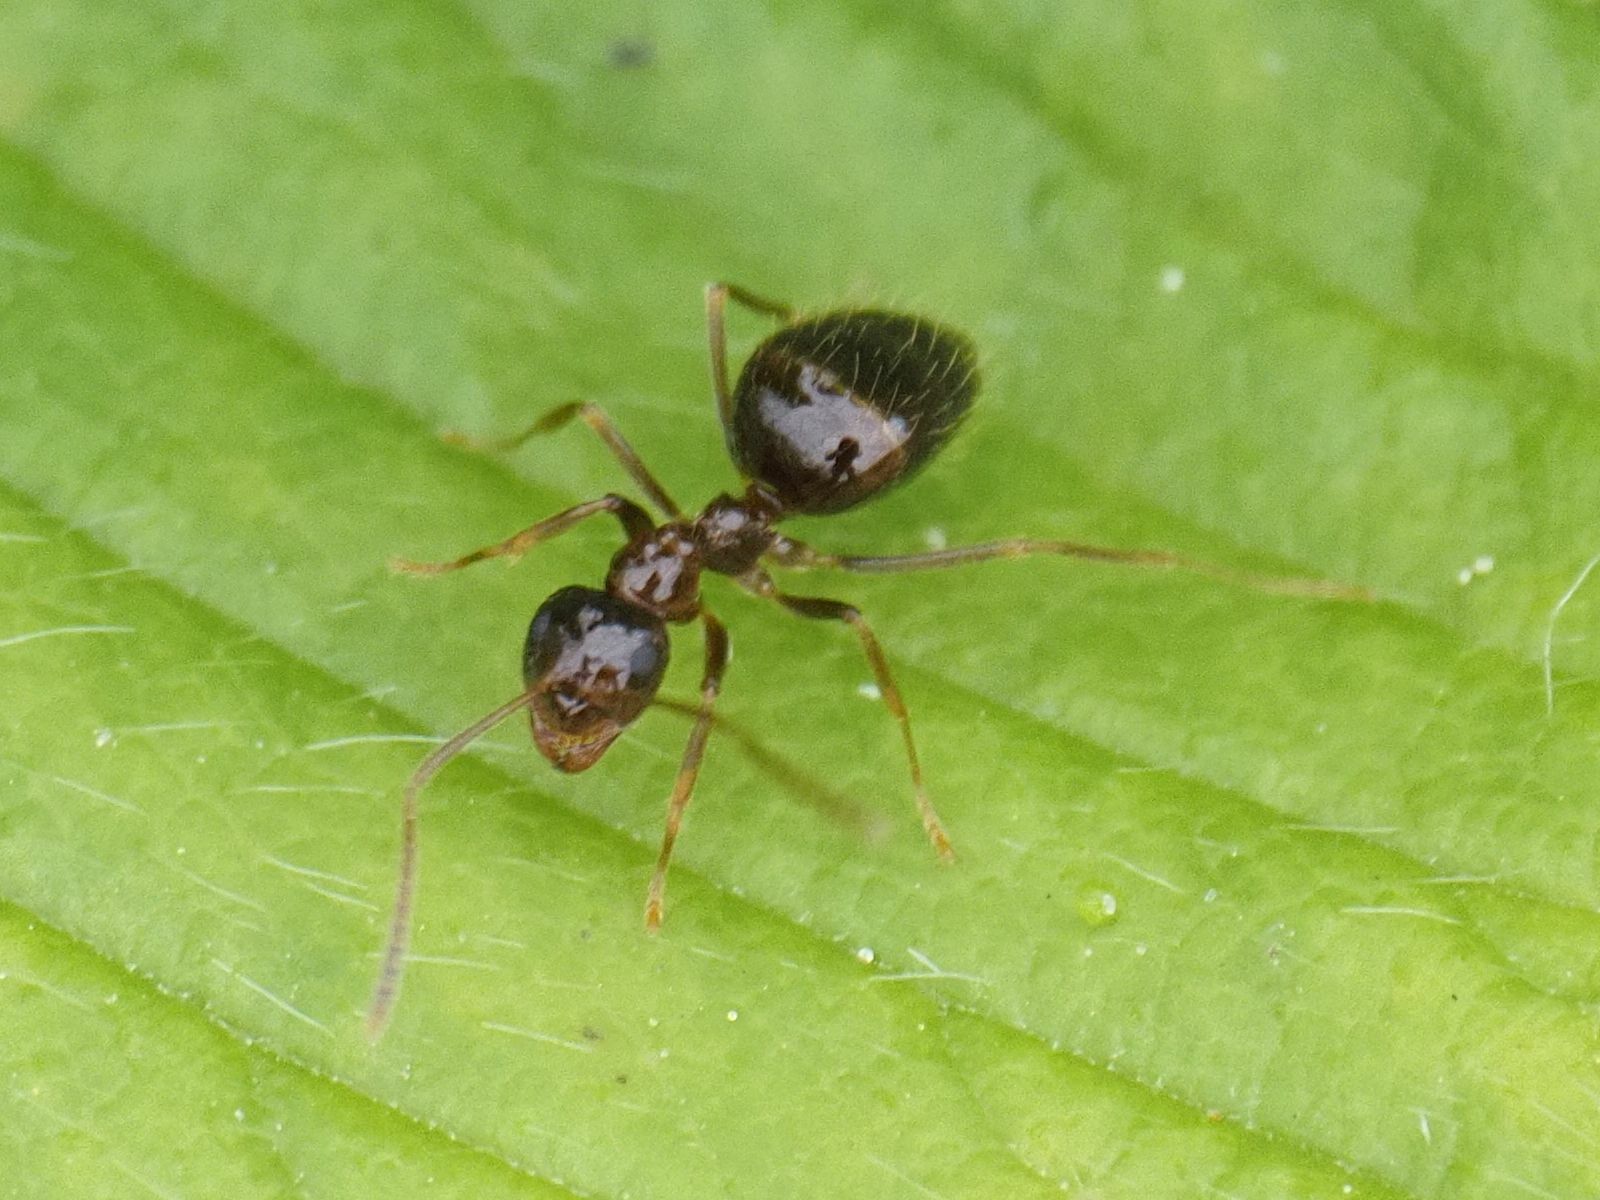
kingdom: Animalia
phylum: Arthropoda
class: Insecta
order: Hymenoptera
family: Formicidae
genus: Prenolepis
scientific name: Prenolepis nitens
